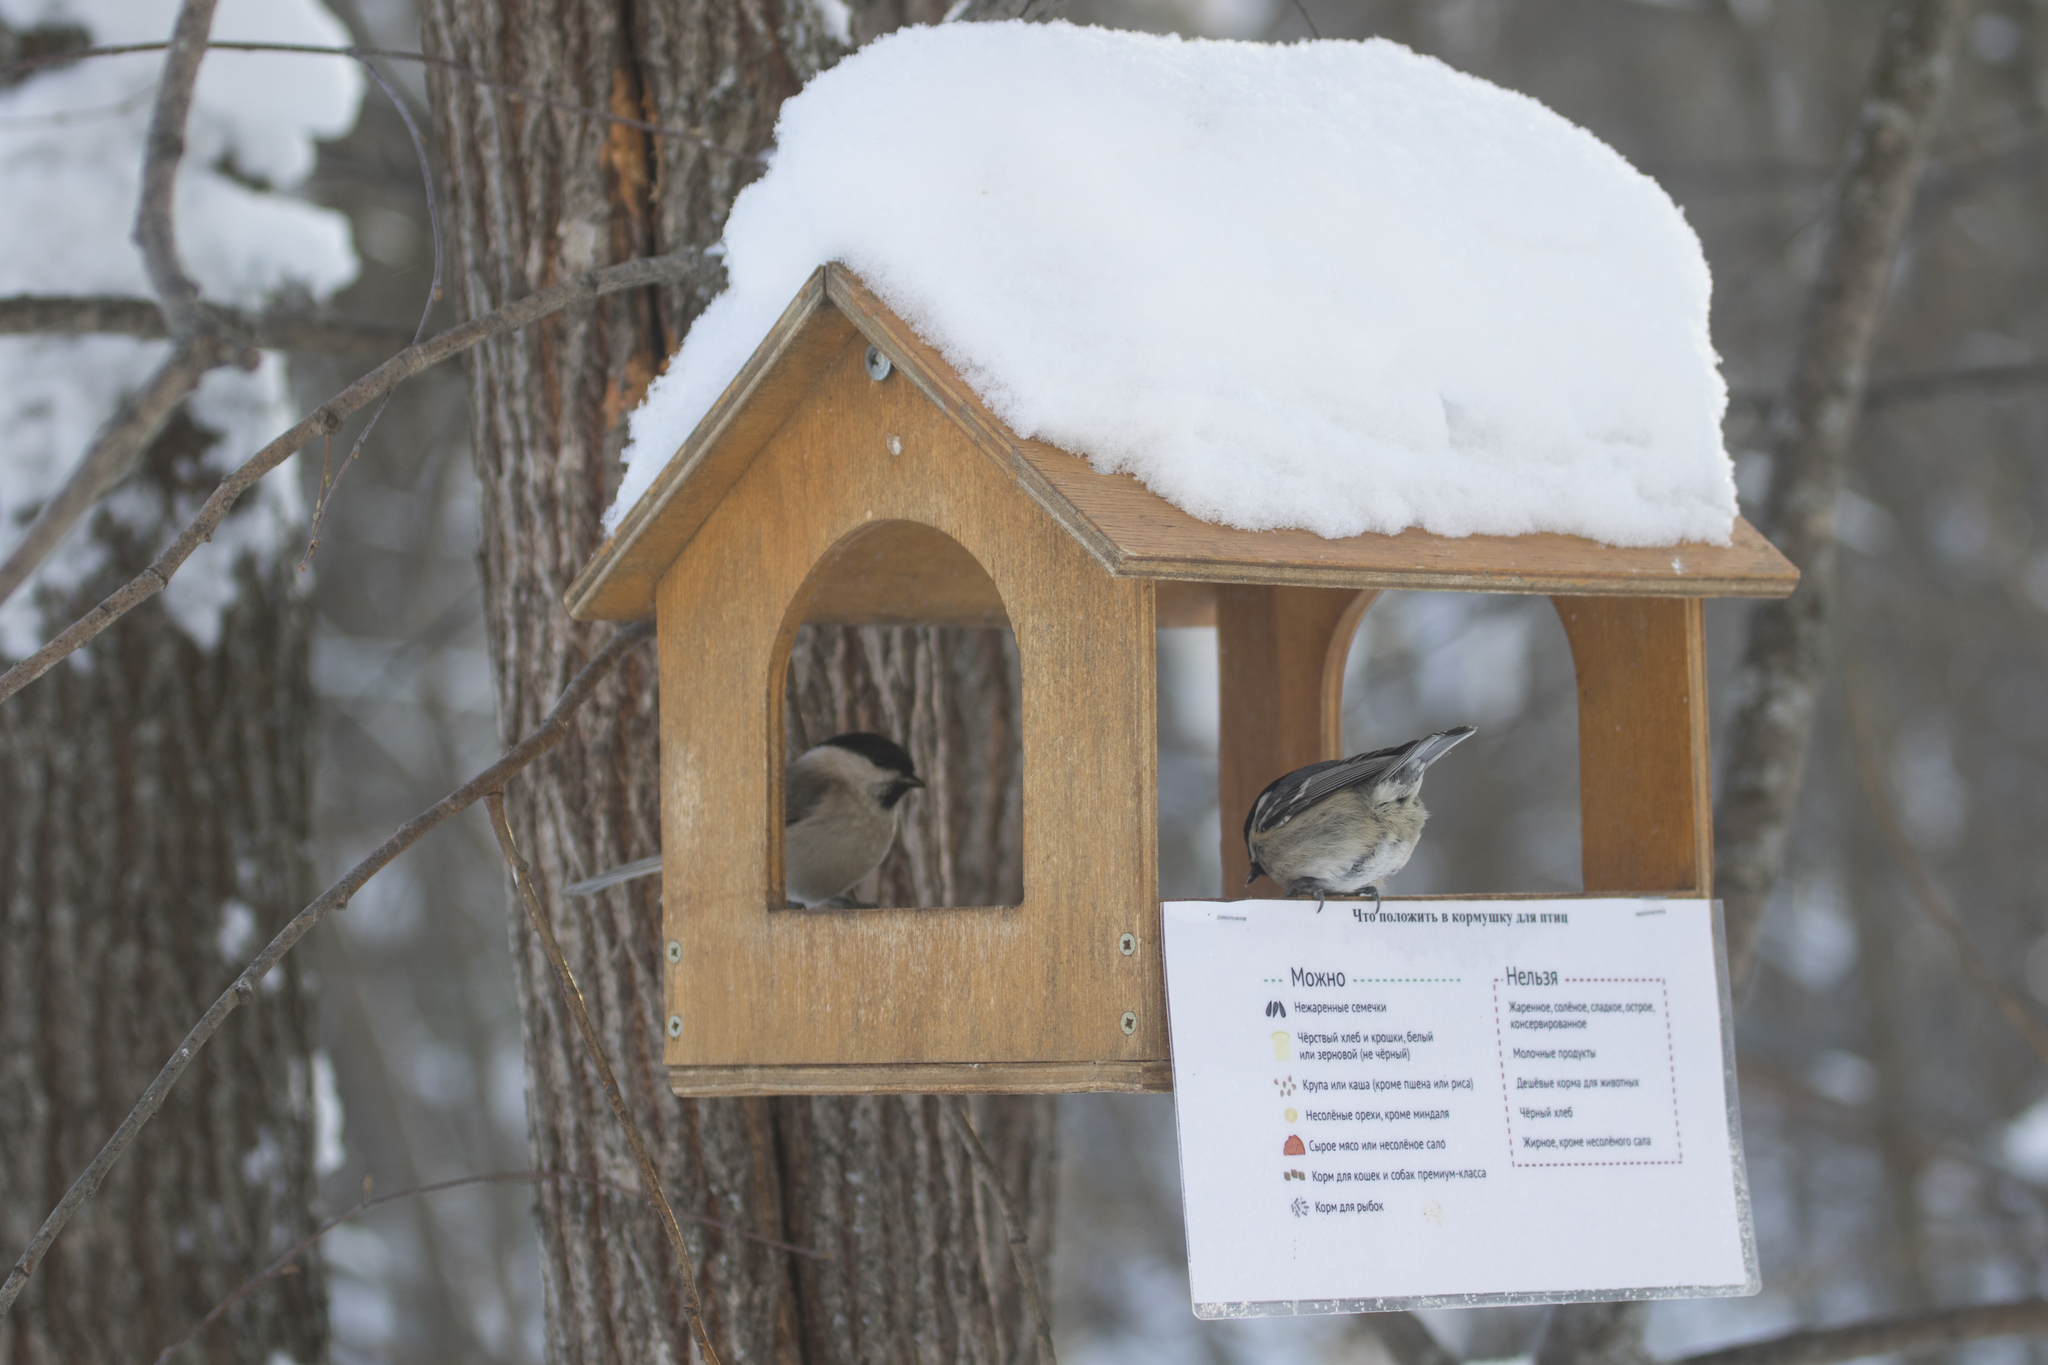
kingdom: Animalia
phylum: Chordata
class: Aves
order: Passeriformes
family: Paridae
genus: Periparus
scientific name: Periparus ater
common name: Coal tit
